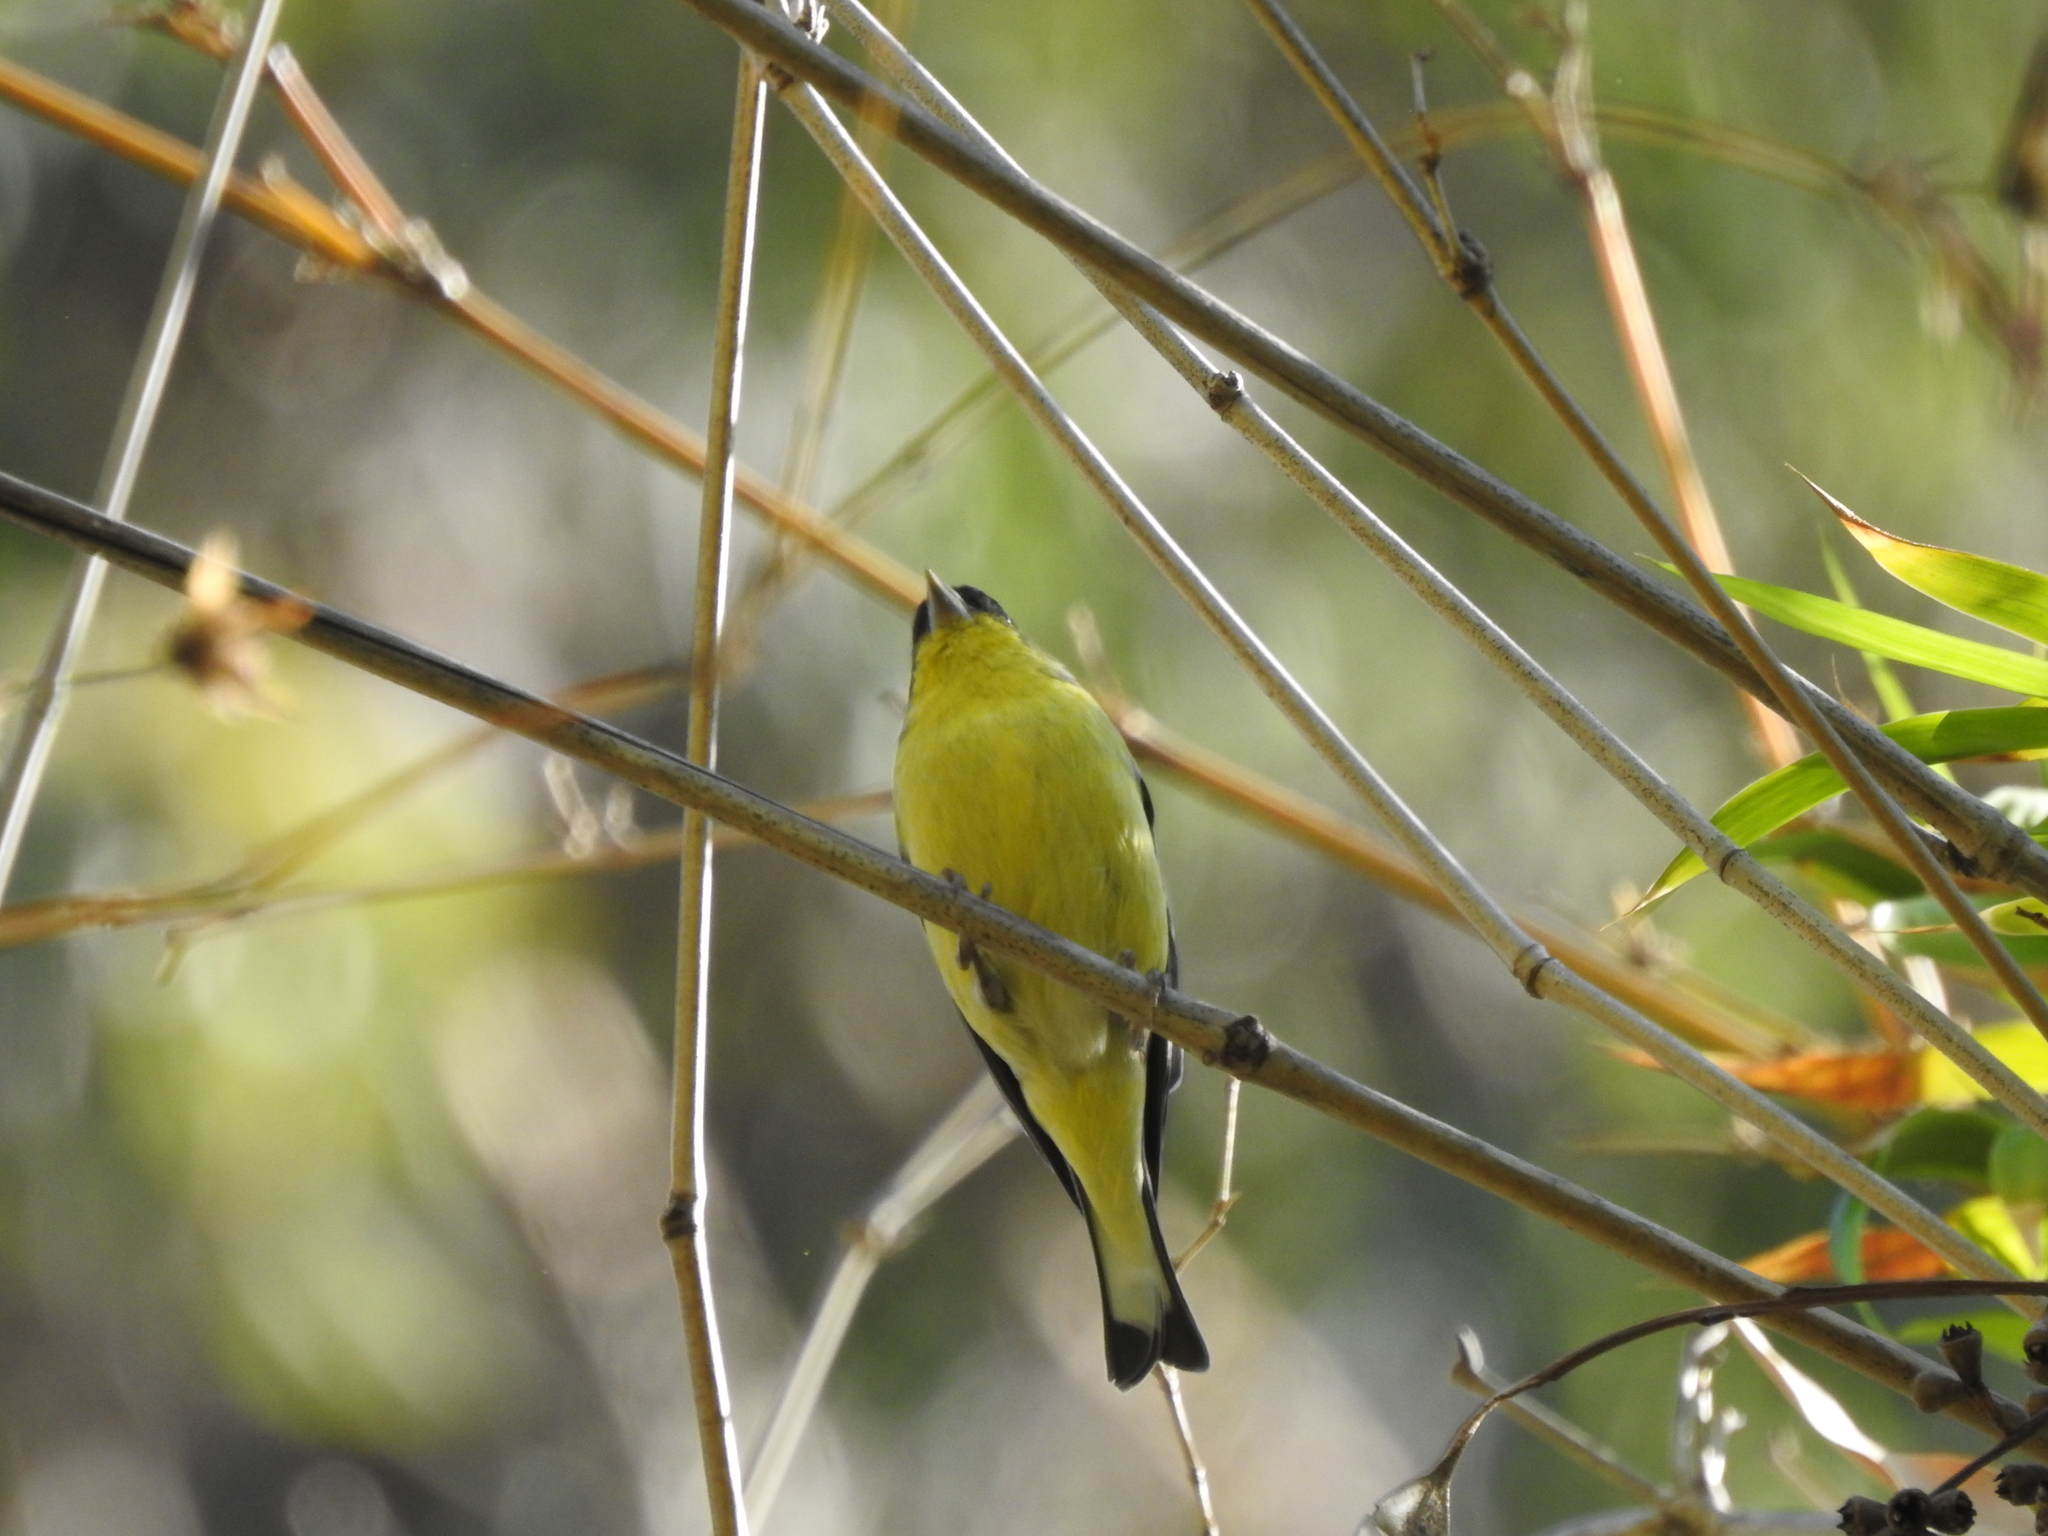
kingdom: Animalia
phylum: Chordata
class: Aves
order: Passeriformes
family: Fringillidae
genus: Spinus
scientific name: Spinus psaltria
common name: Lesser goldfinch
